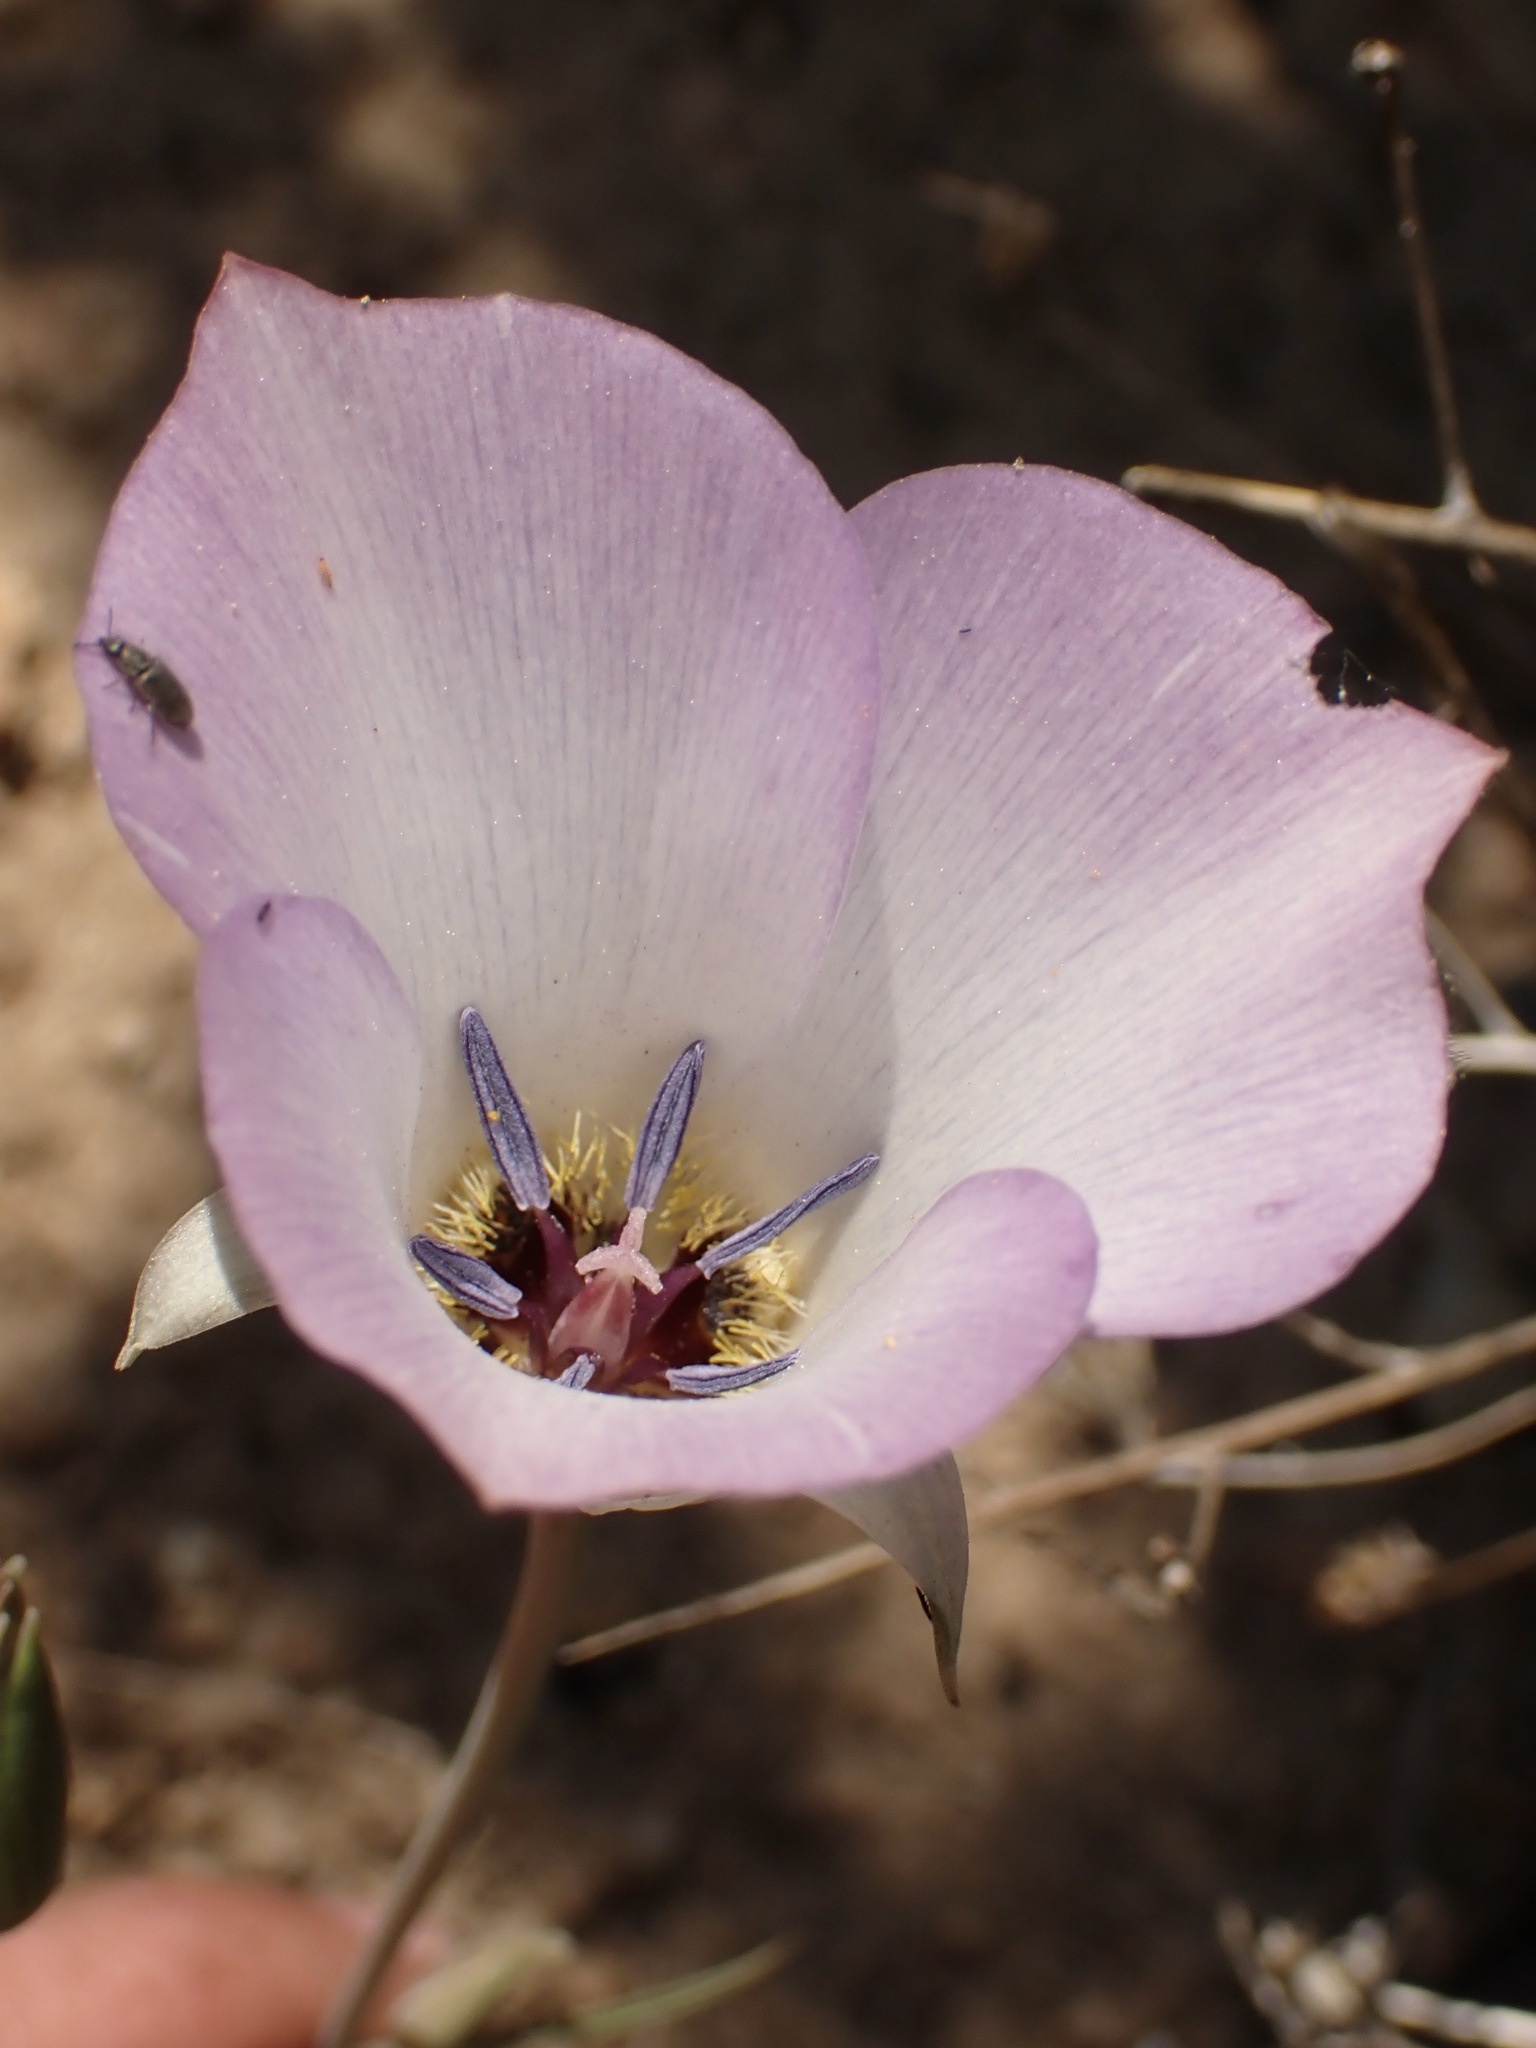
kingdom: Plantae
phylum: Tracheophyta
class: Liliopsida
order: Liliales
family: Liliaceae
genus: Calochortus
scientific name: Calochortus invenustus
